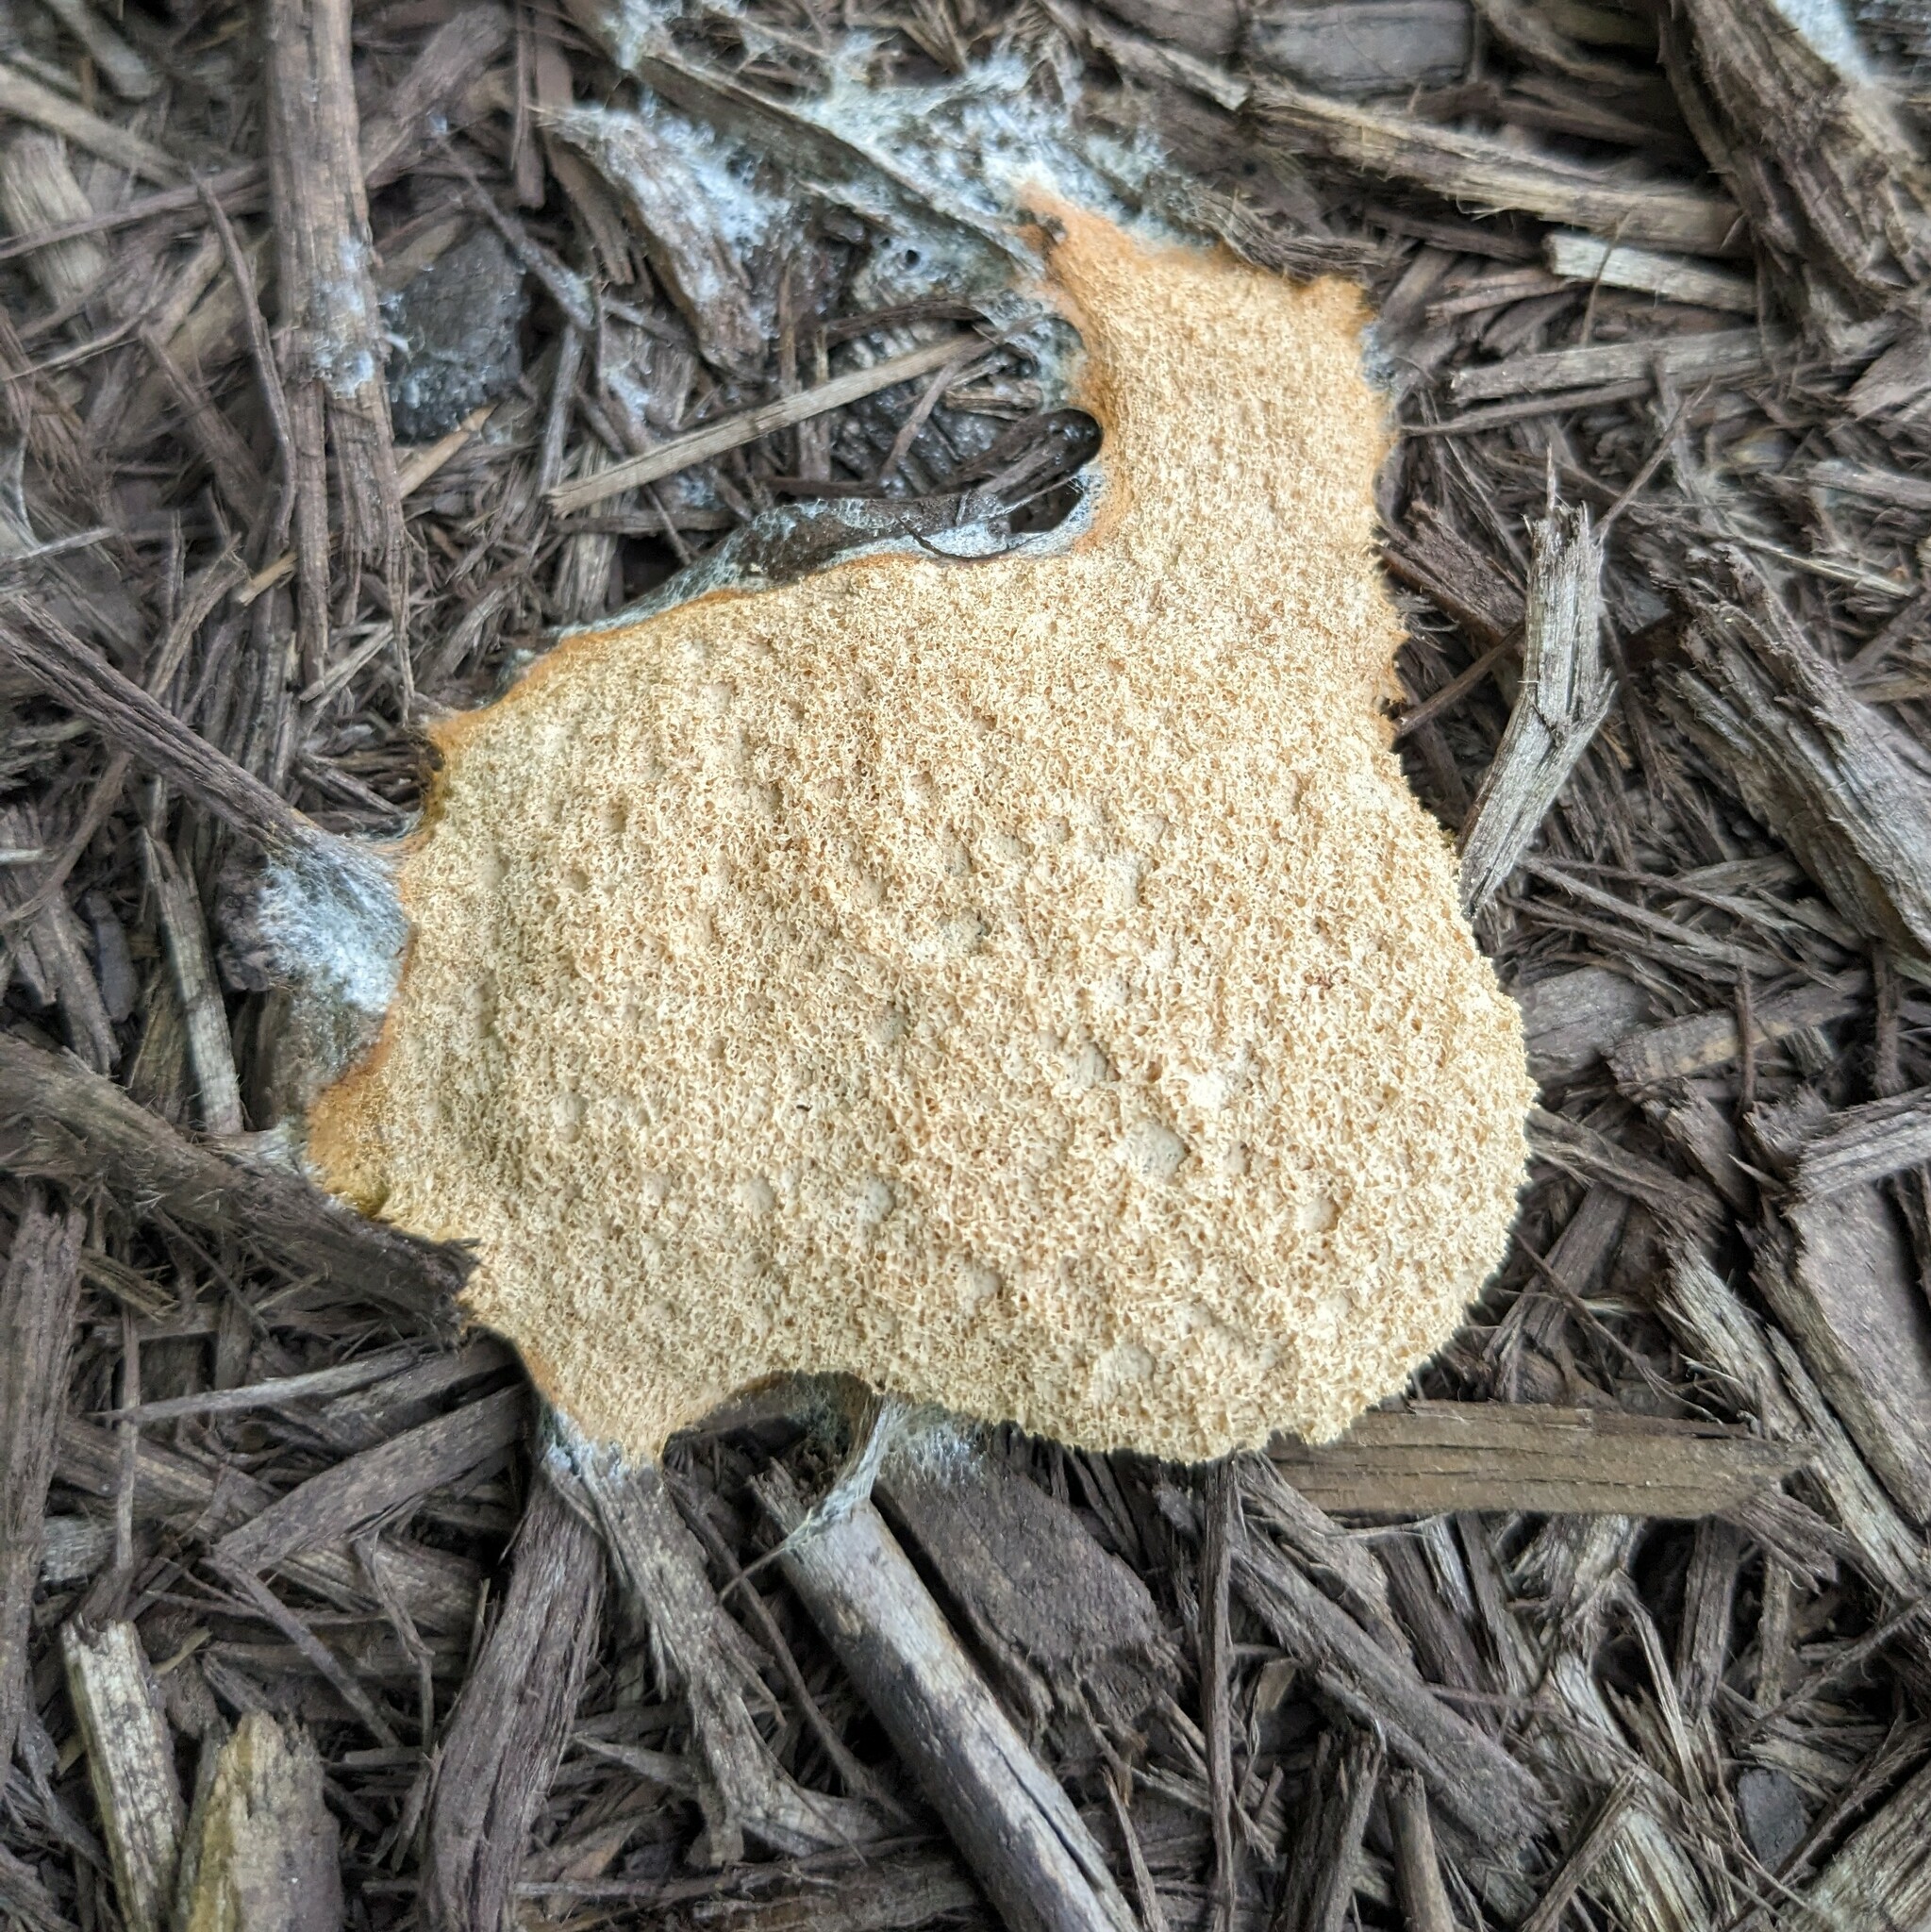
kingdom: Protozoa
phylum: Mycetozoa
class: Myxomycetes
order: Physarales
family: Physaraceae
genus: Fuligo
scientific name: Fuligo septica
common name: Dog vomit slime mold
